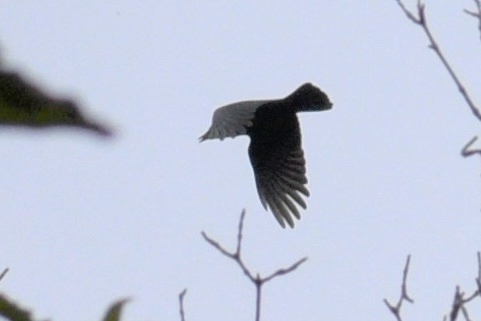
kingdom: Animalia
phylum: Chordata
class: Aves
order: Passeriformes
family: Corvidae
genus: Corvus
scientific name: Corvus brachyrhynchos
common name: American crow
